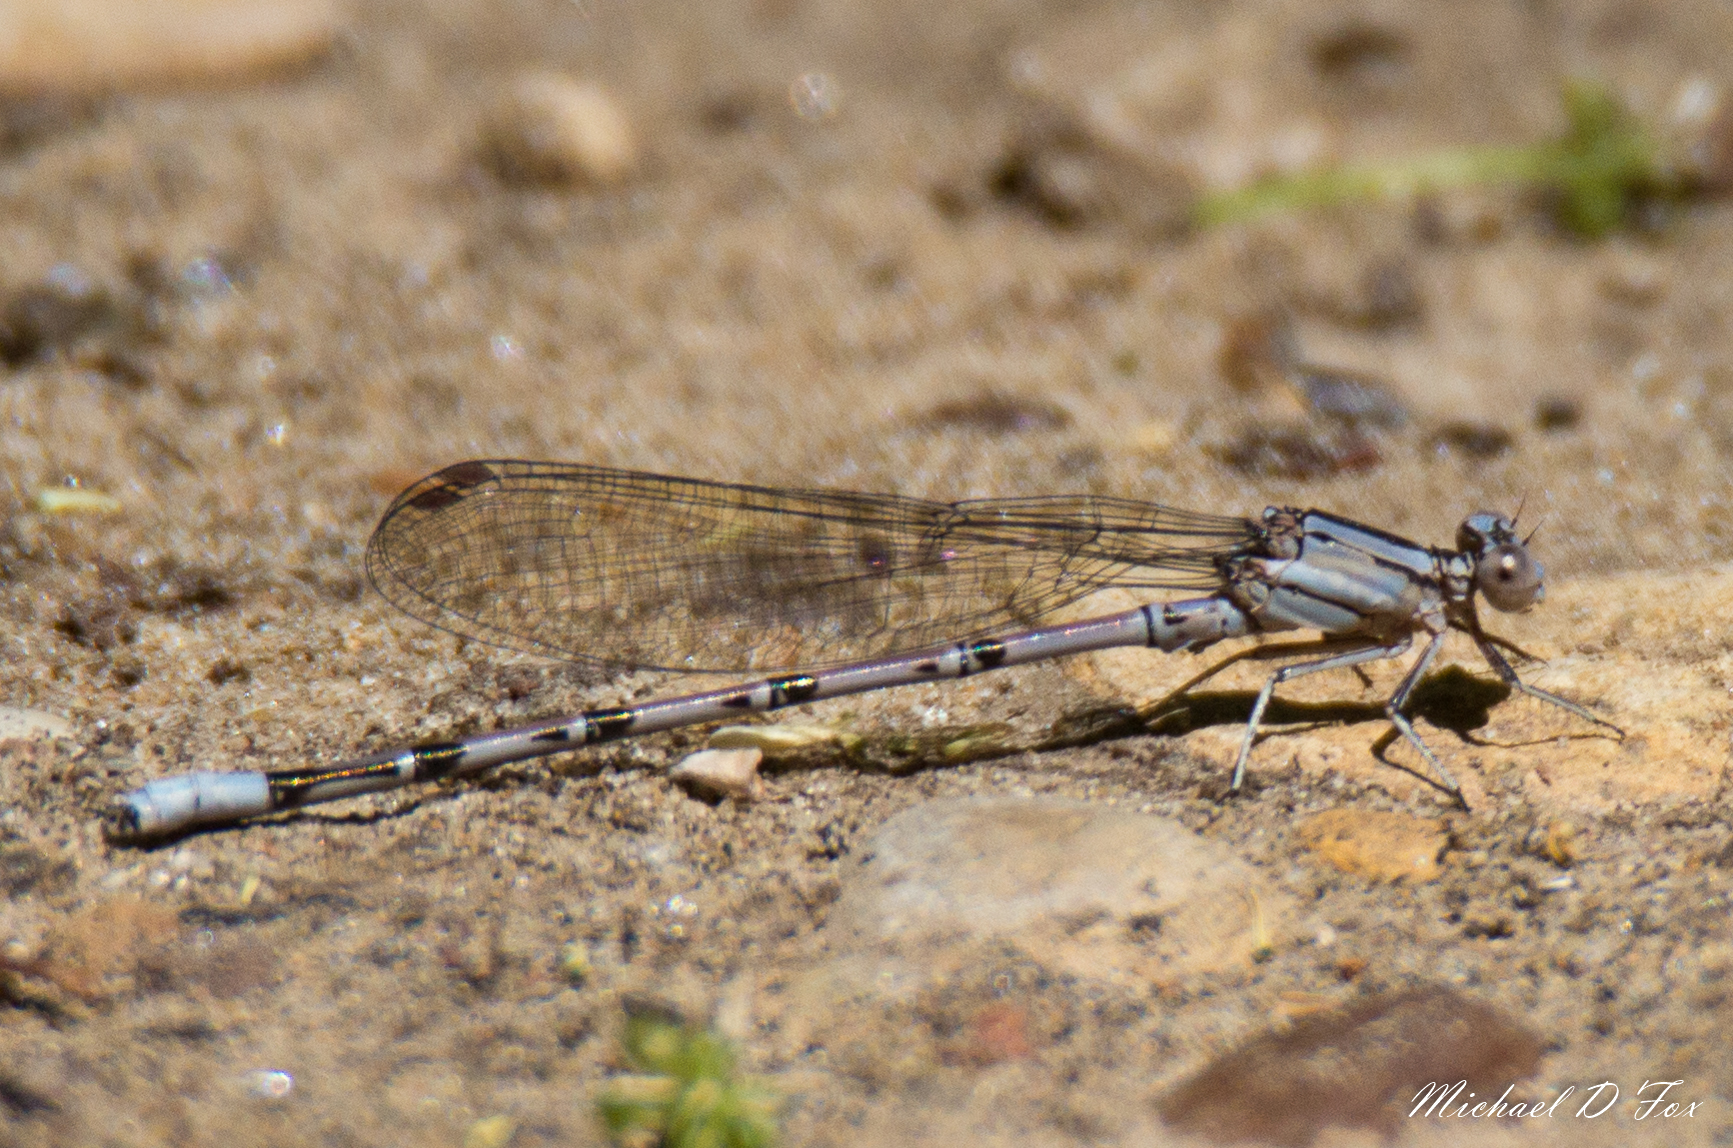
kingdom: Animalia
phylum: Arthropoda
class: Insecta
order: Odonata
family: Coenagrionidae
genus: Argia
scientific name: Argia funebris
